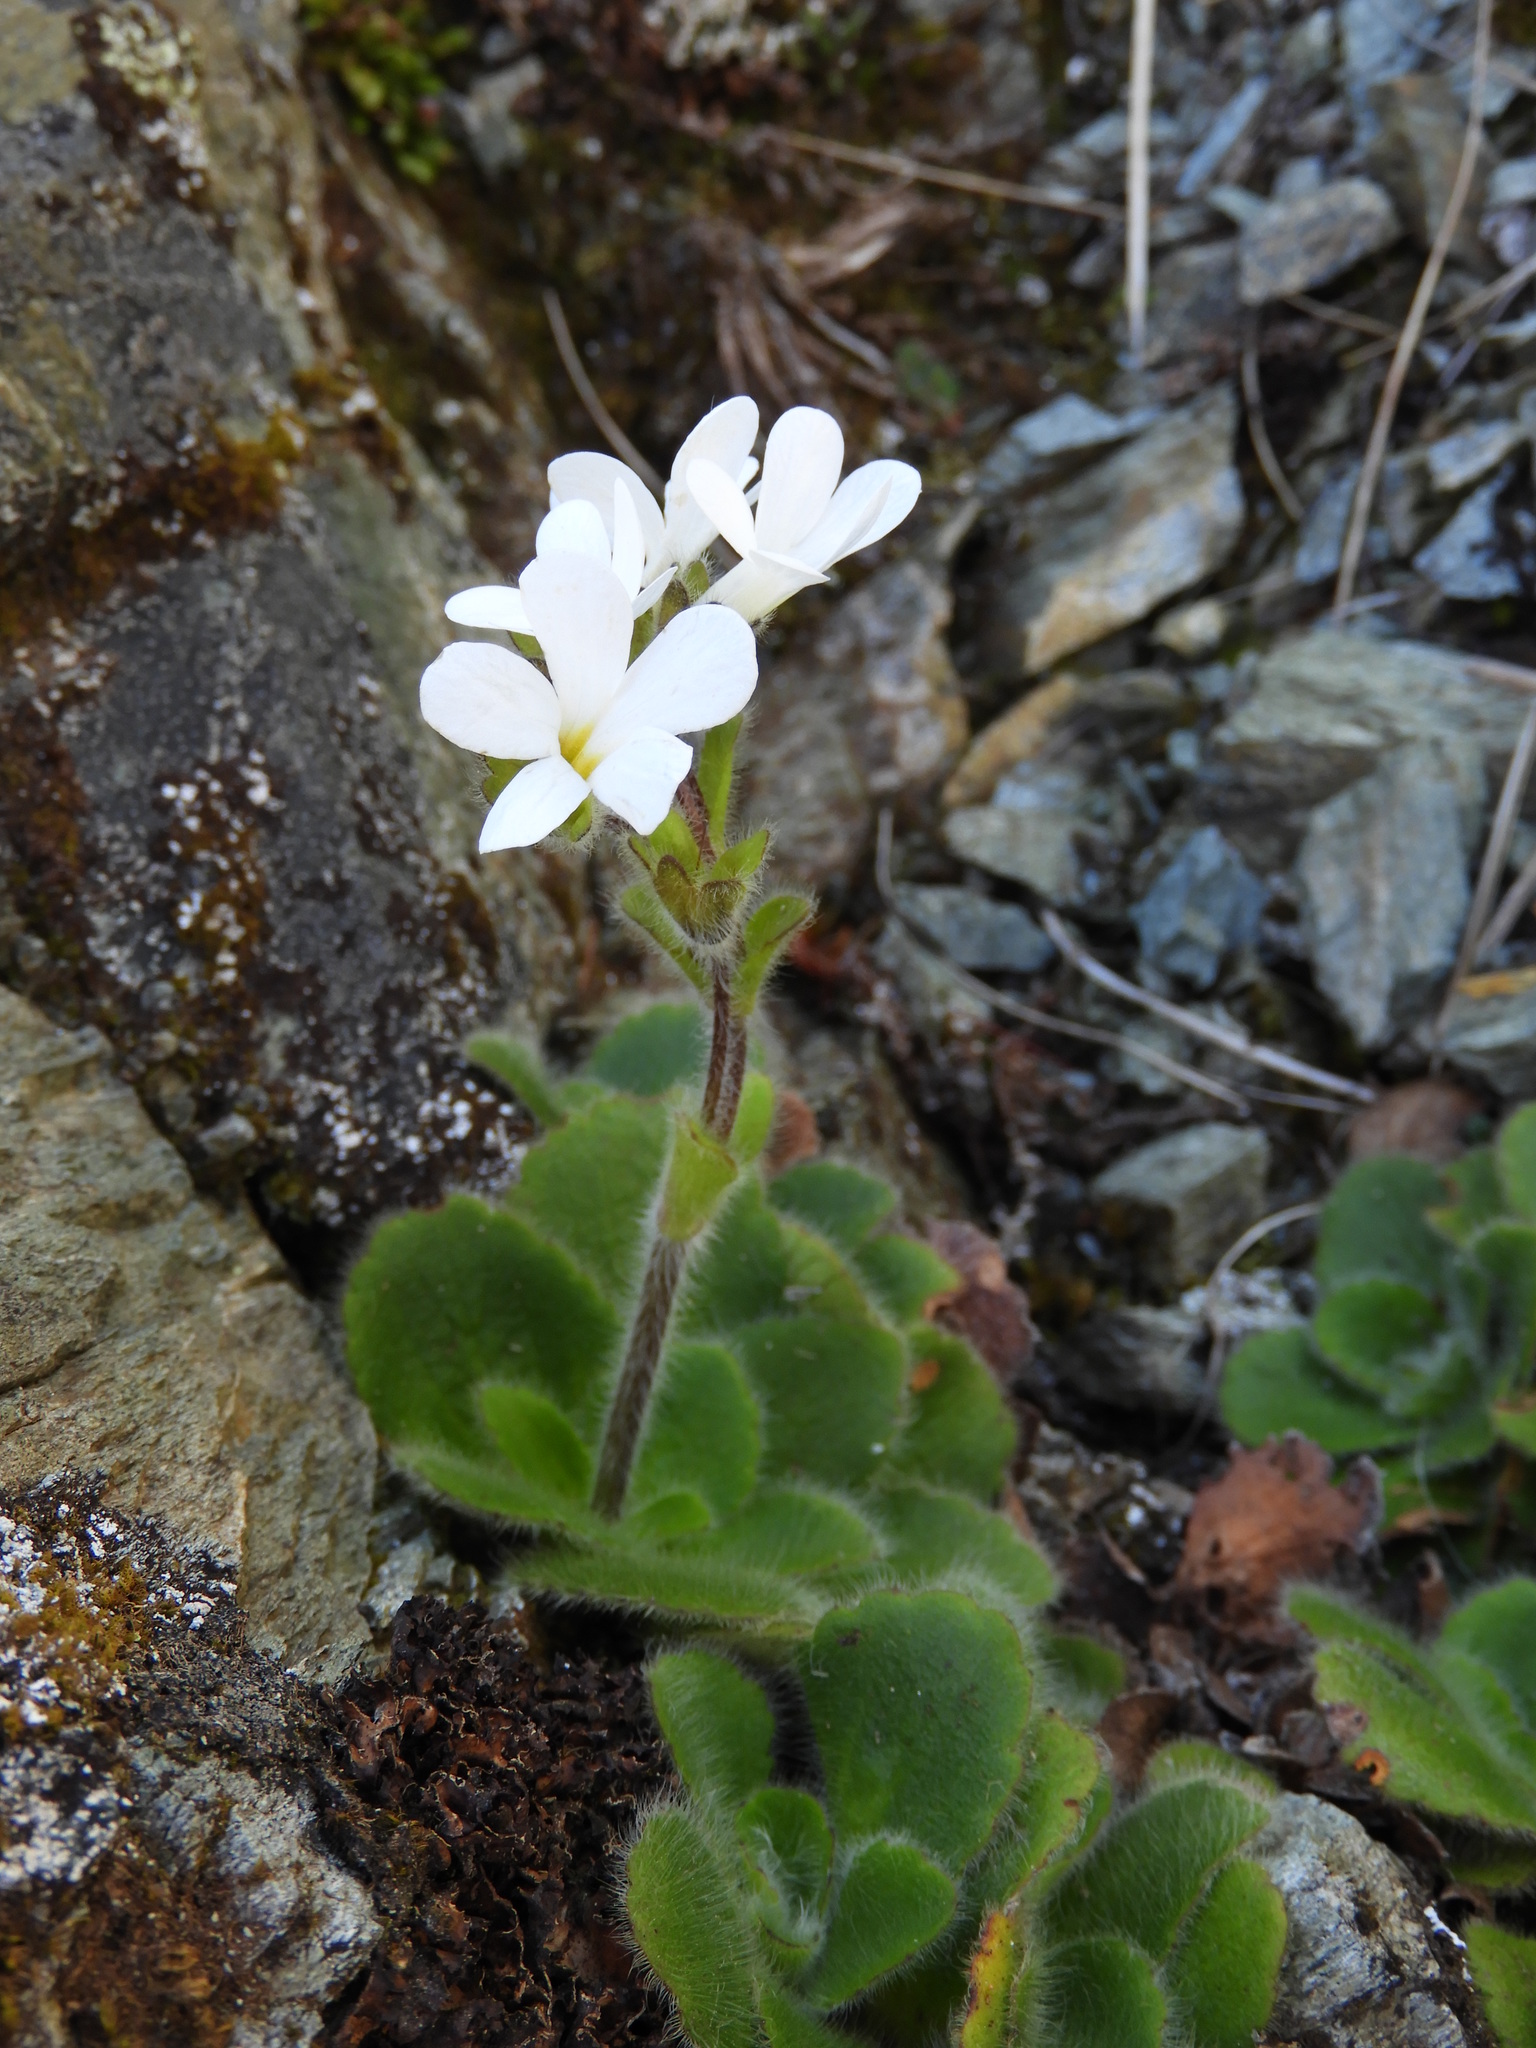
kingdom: Plantae
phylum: Tracheophyta
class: Magnoliopsida
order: Lamiales
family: Plantaginaceae
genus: Ourisia
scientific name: Ourisia spathulata
